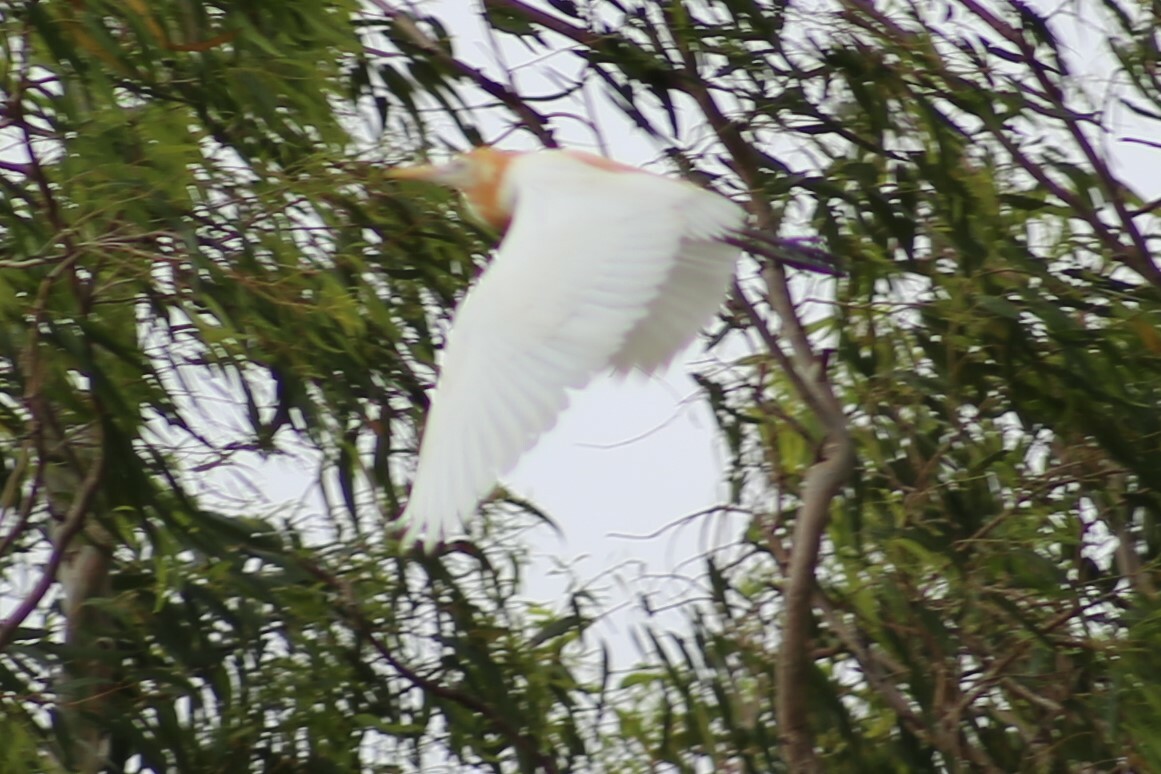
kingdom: Animalia
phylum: Chordata
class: Aves
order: Pelecaniformes
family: Ardeidae
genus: Bubulcus
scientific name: Bubulcus coromandus
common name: Eastern cattle egret
